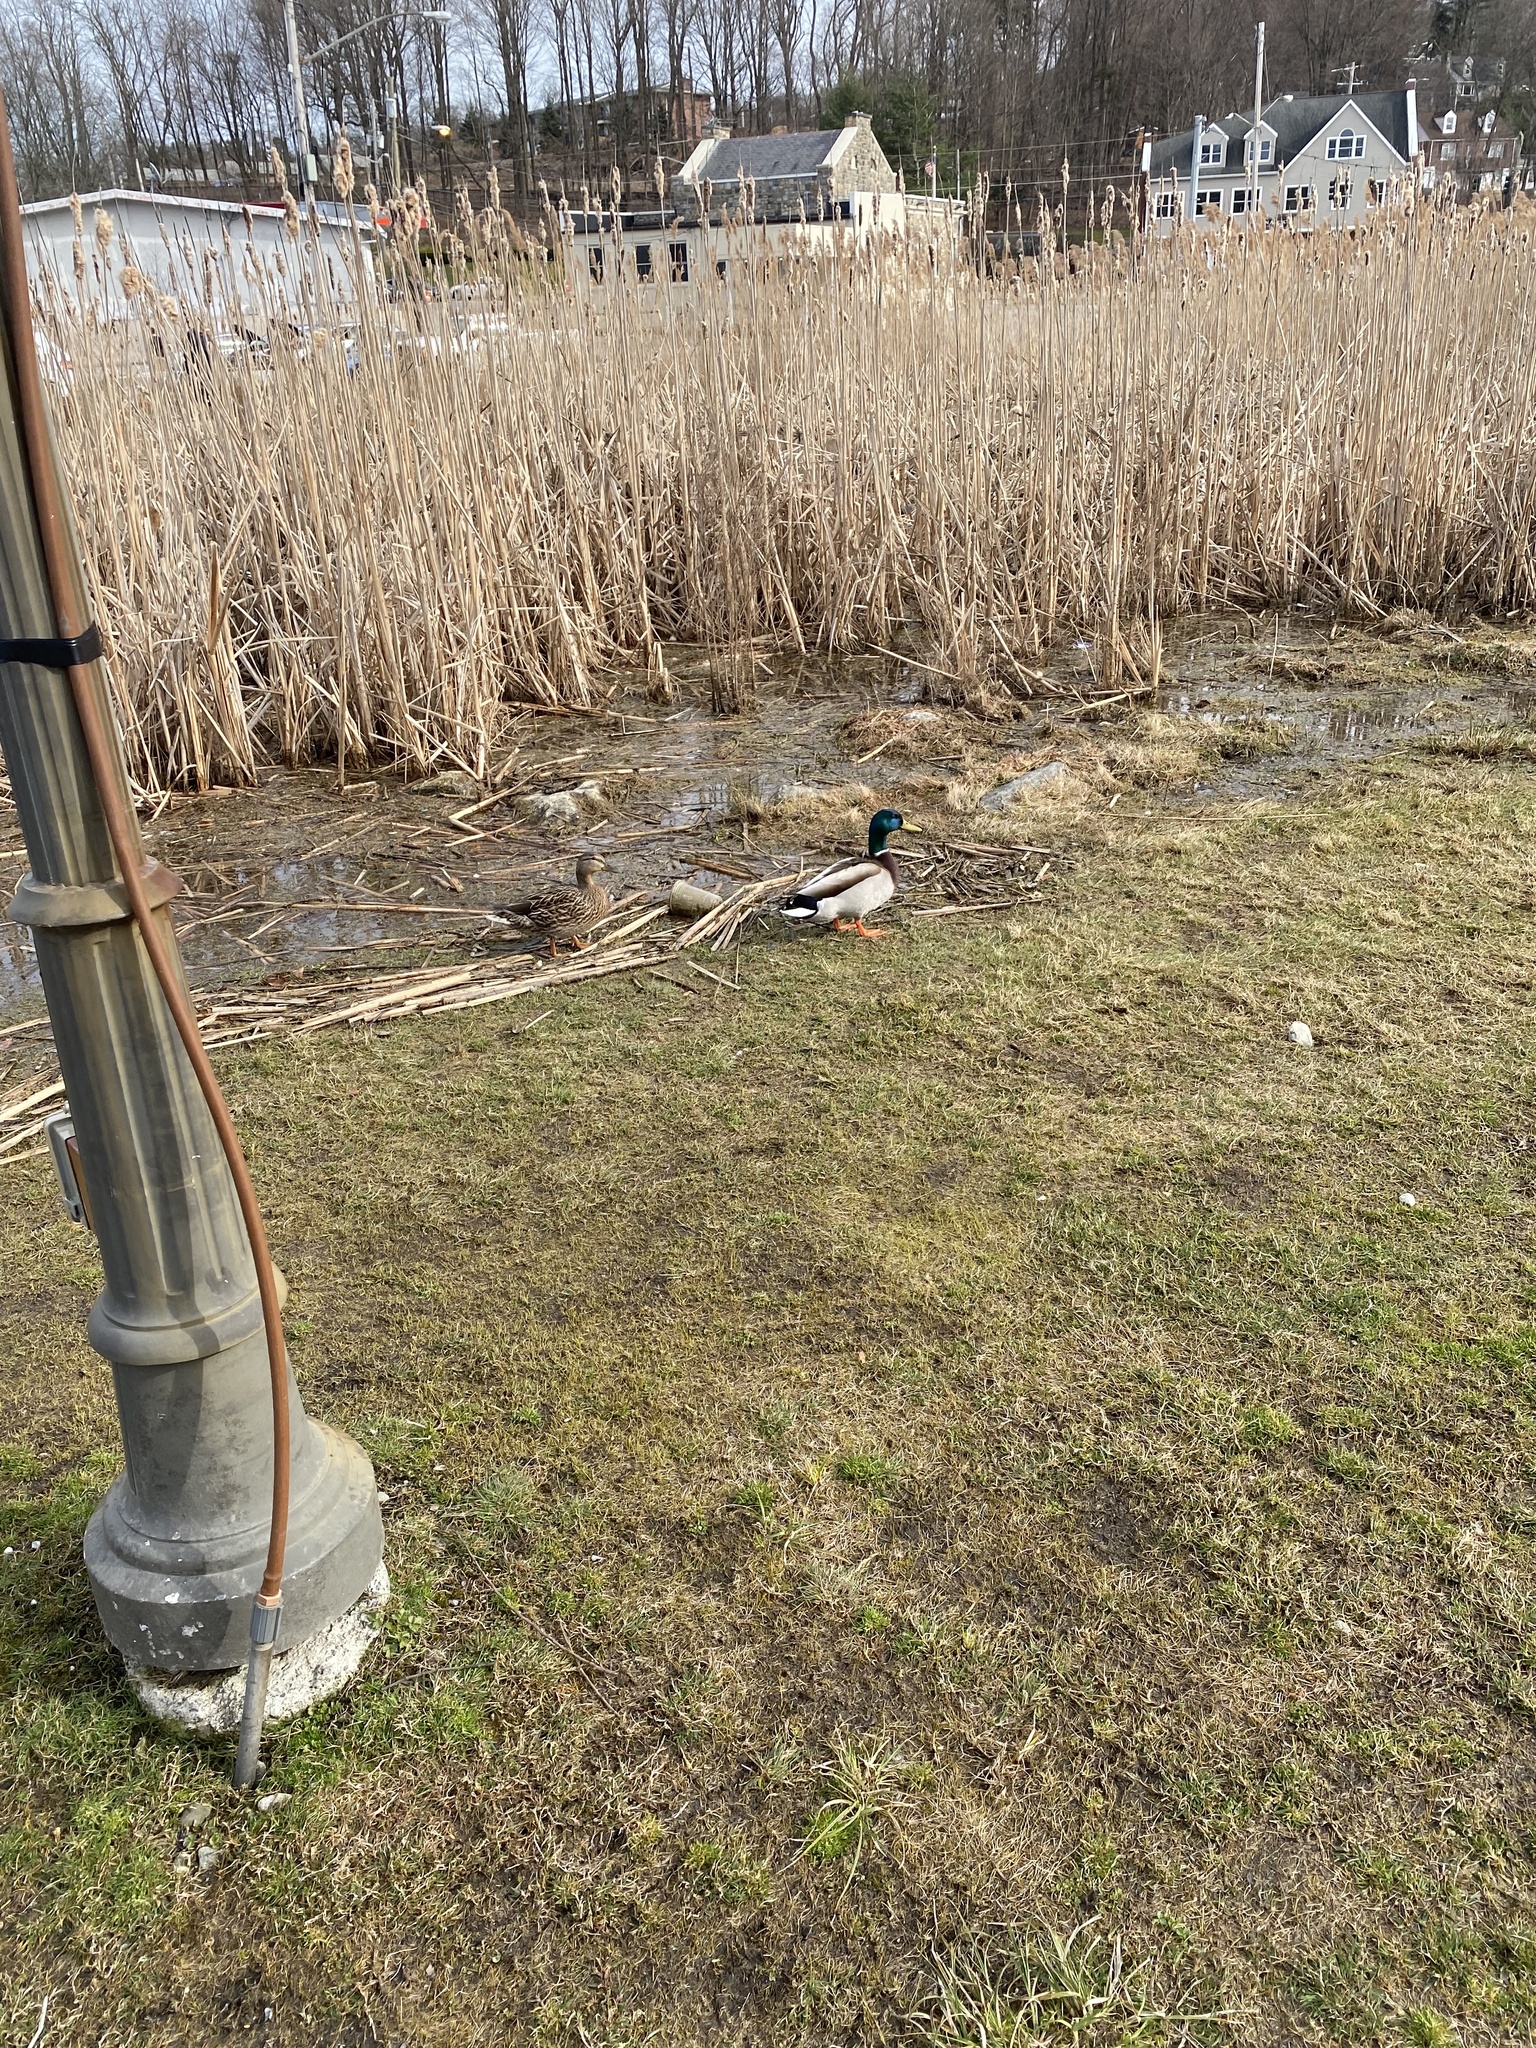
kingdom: Animalia
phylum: Chordata
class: Aves
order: Anseriformes
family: Anatidae
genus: Anas
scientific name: Anas platyrhynchos
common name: Mallard
